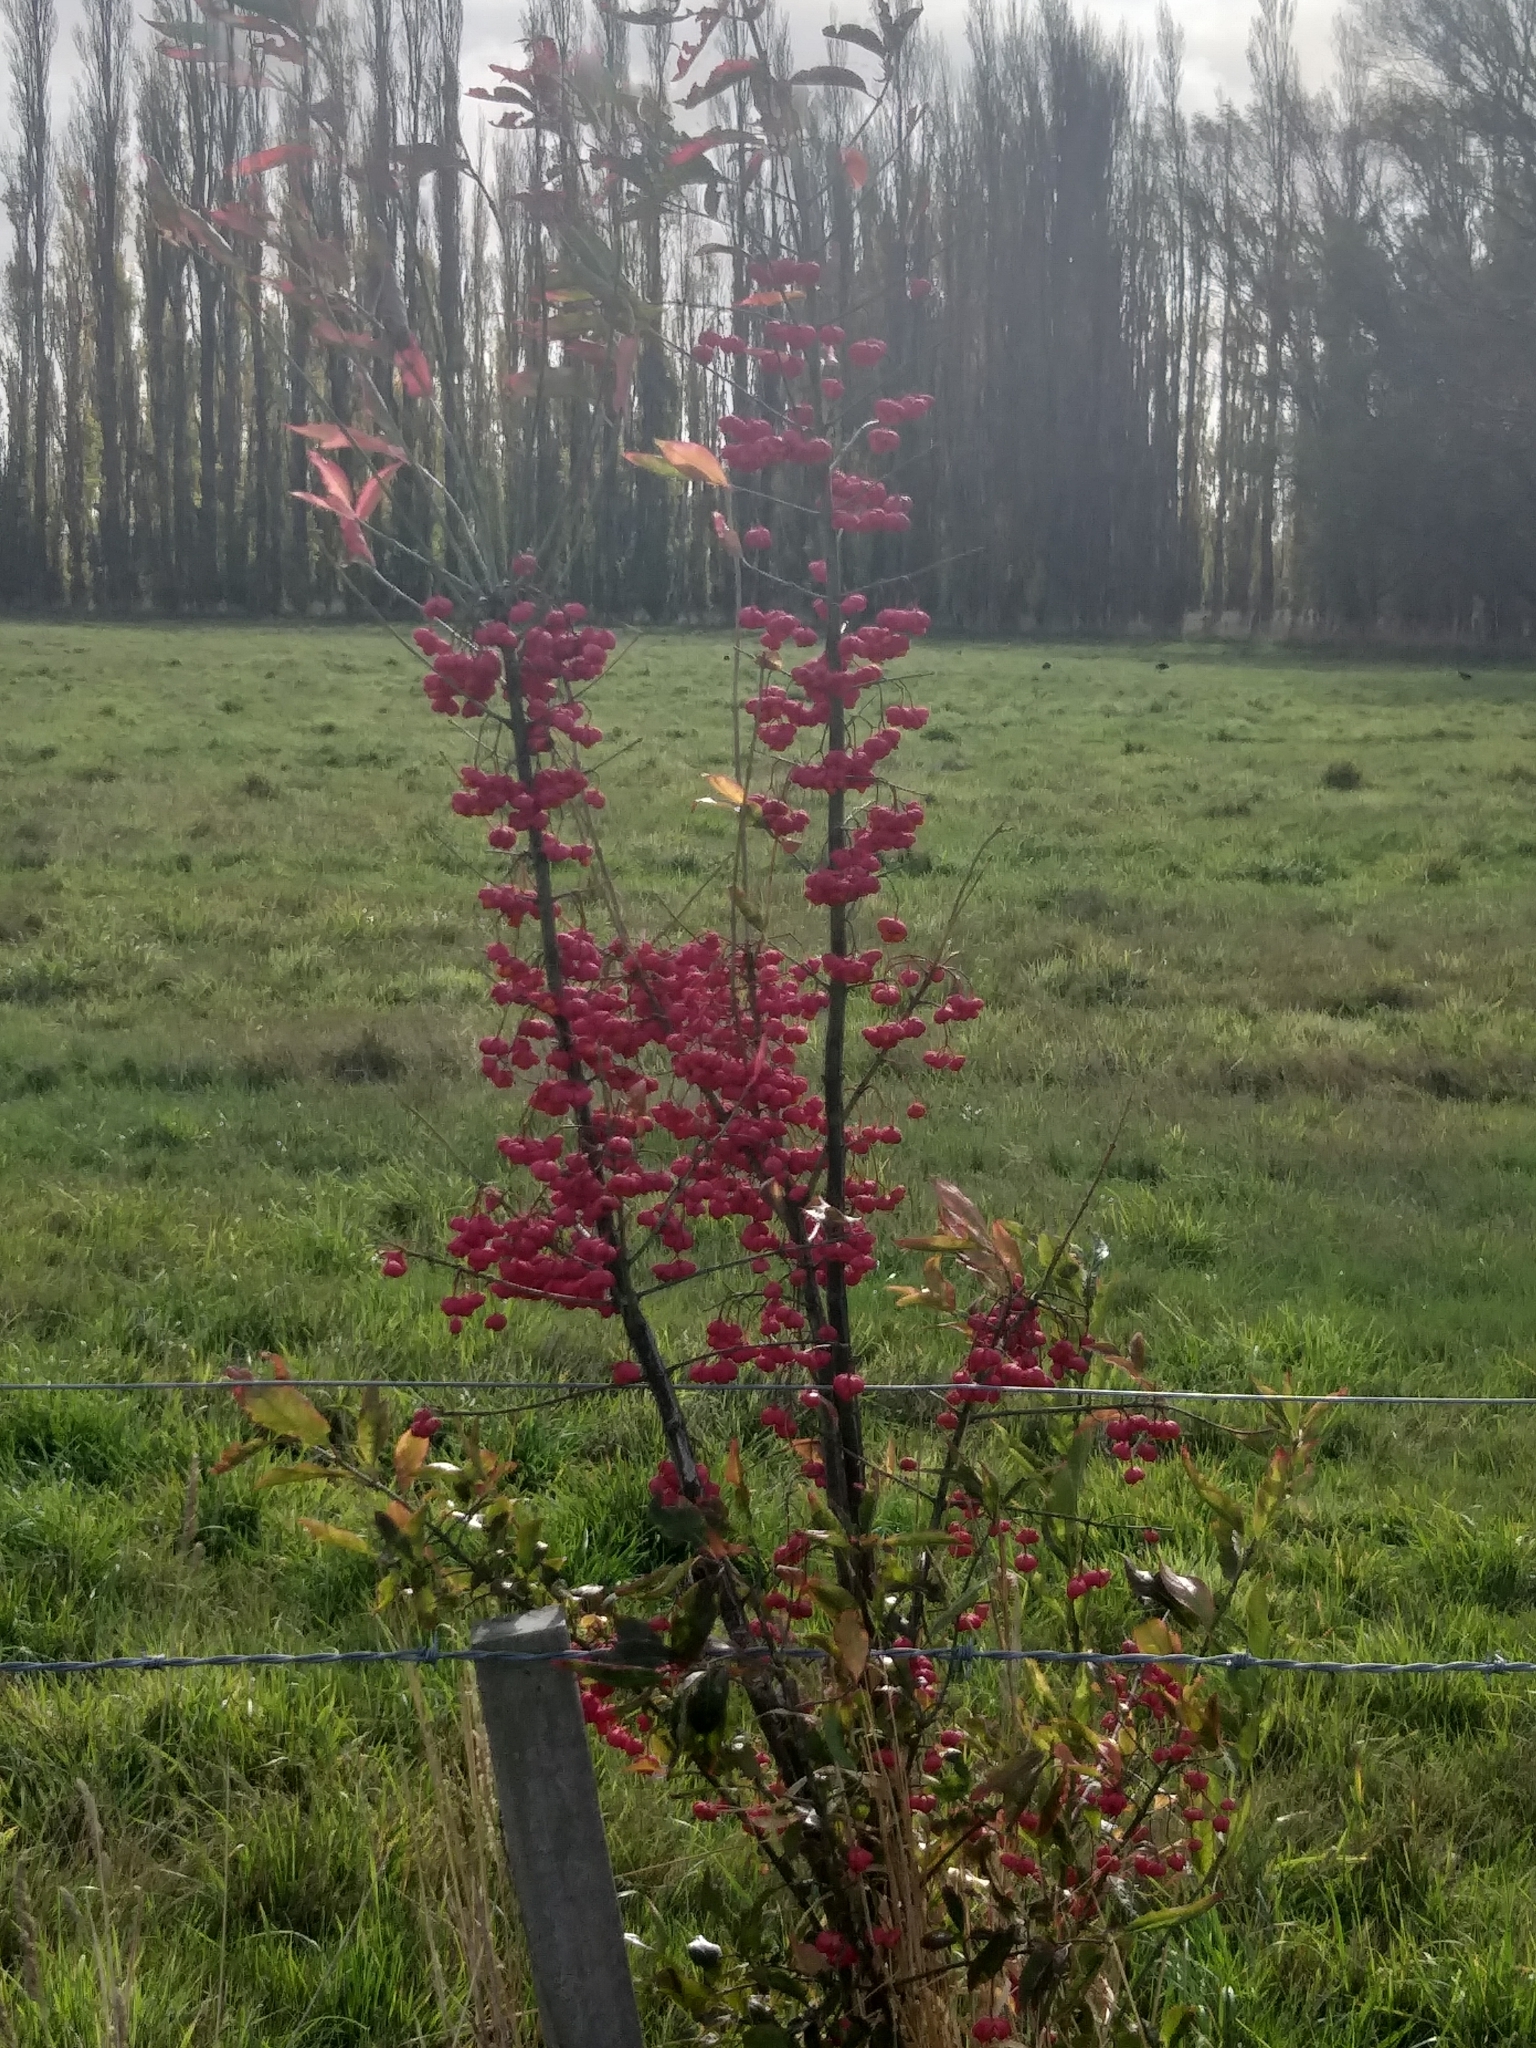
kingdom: Plantae
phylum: Tracheophyta
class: Magnoliopsida
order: Celastrales
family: Celastraceae
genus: Euonymus
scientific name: Euonymus europaeus
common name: Spindle
